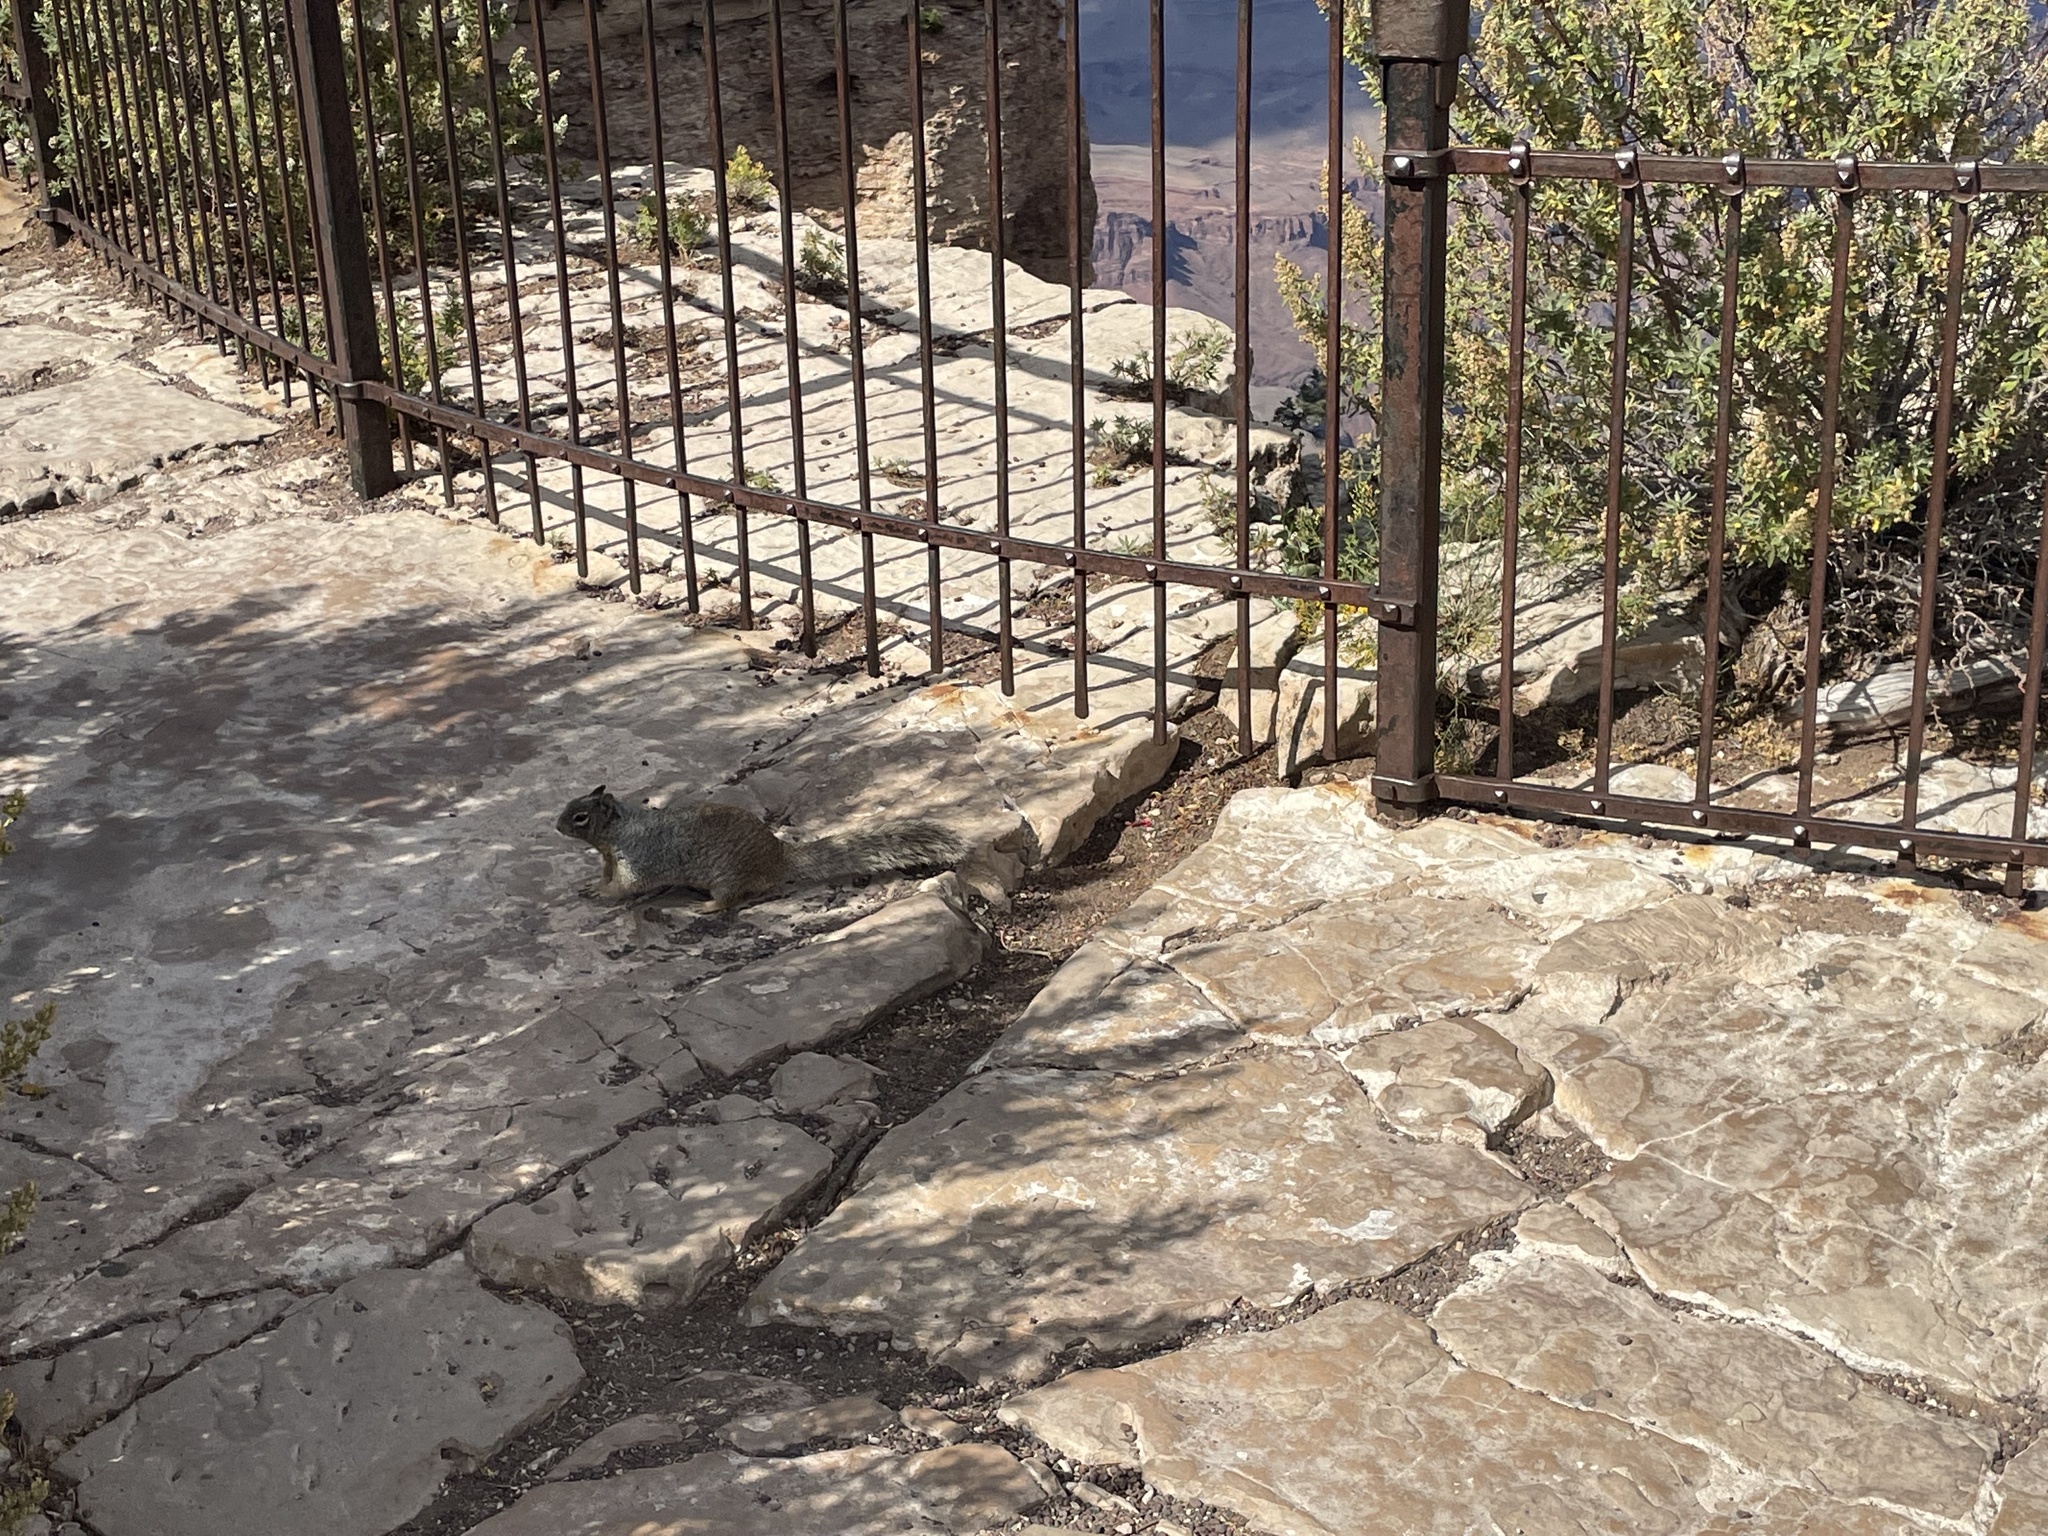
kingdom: Animalia
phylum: Chordata
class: Mammalia
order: Rodentia
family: Sciuridae
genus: Otospermophilus
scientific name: Otospermophilus variegatus
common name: Rock squirrel
